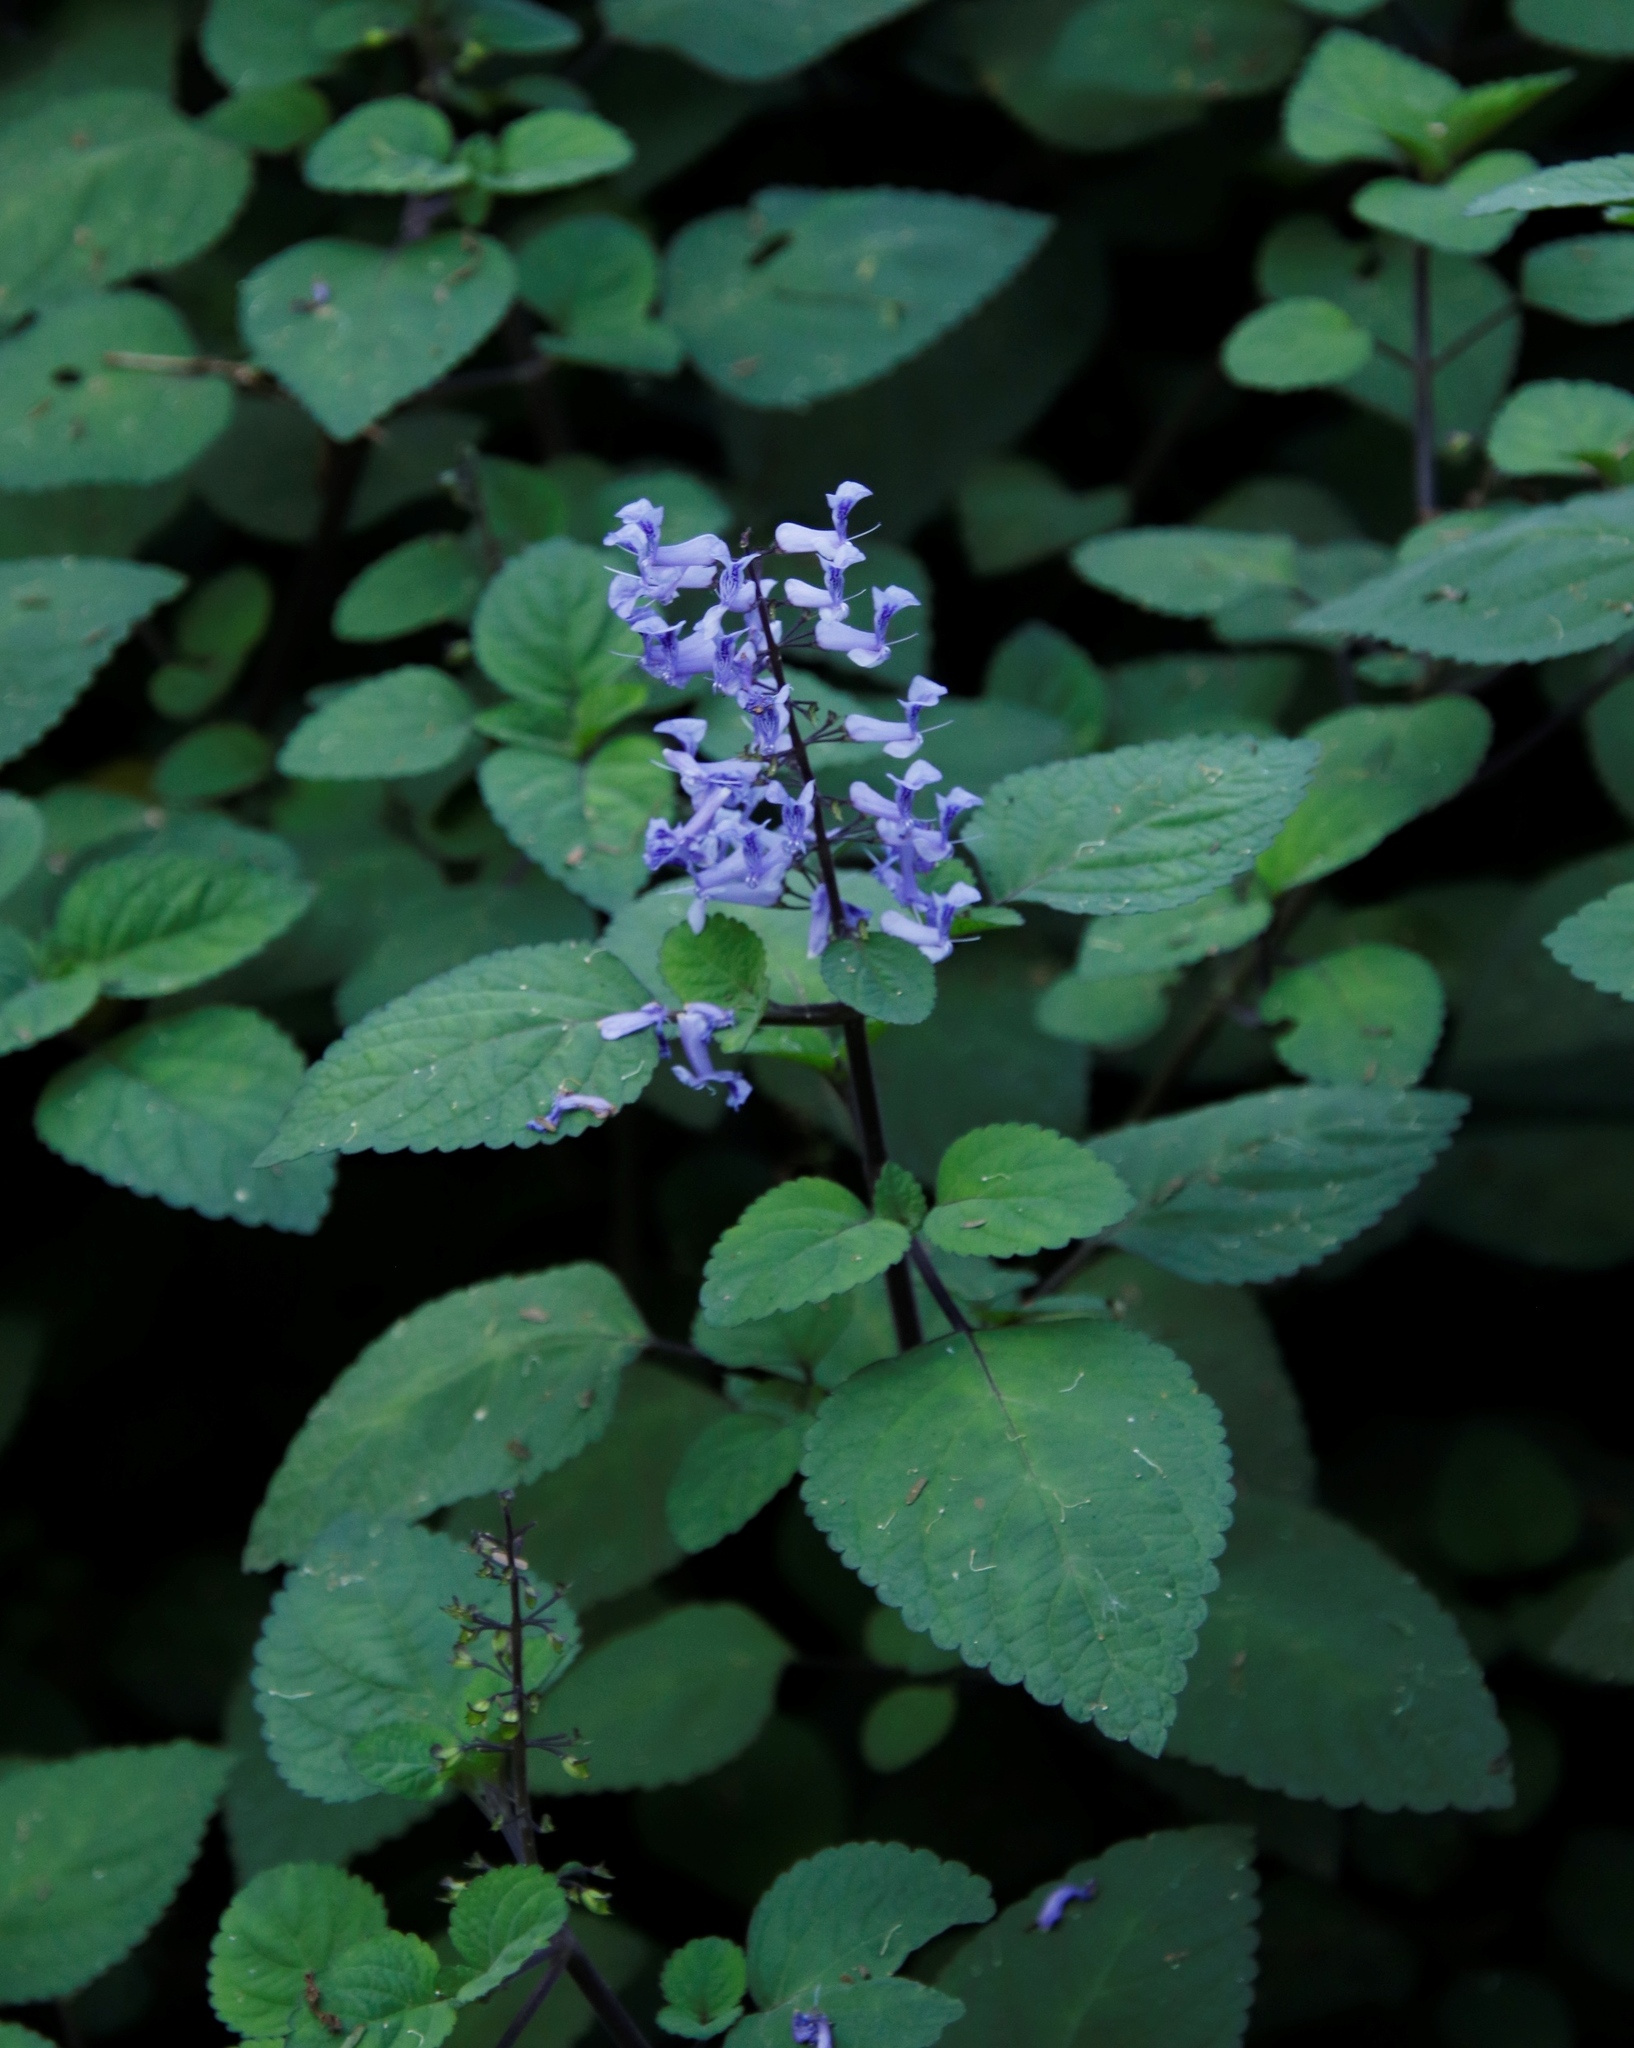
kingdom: Plantae
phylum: Tracheophyta
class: Magnoliopsida
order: Lamiales
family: Lamiaceae
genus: Plectranthus
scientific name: Plectranthus zuluensis
